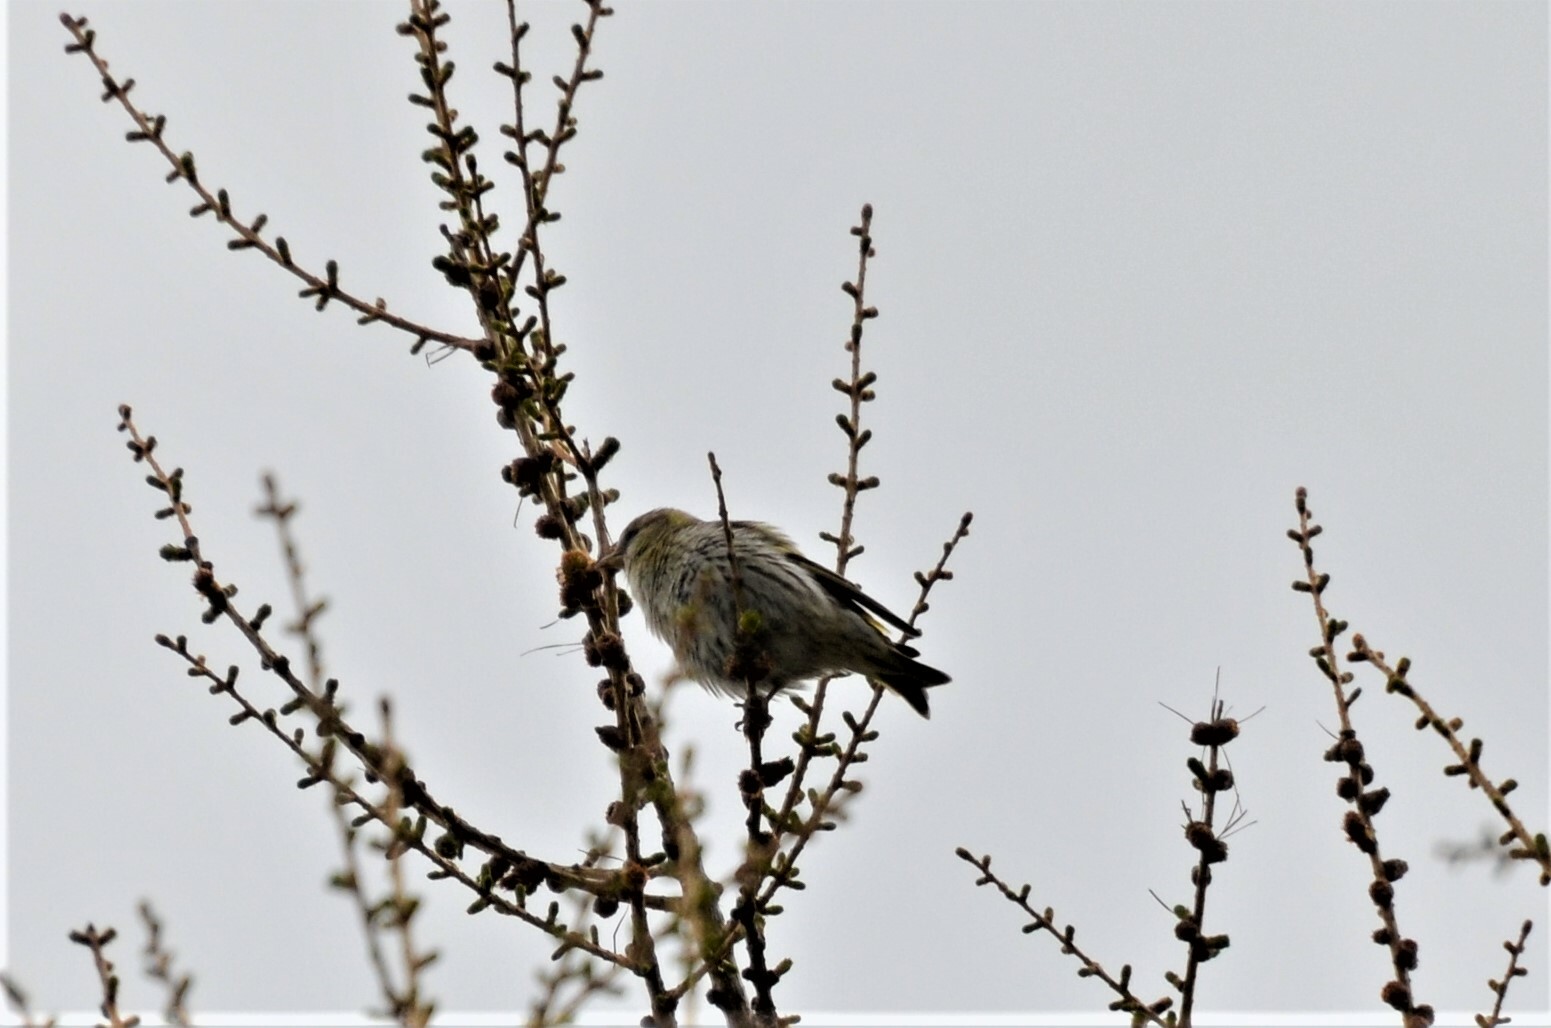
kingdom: Animalia
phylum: Chordata
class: Aves
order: Passeriformes
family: Fringillidae
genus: Spinus
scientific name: Spinus spinus
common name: Eurasian siskin
